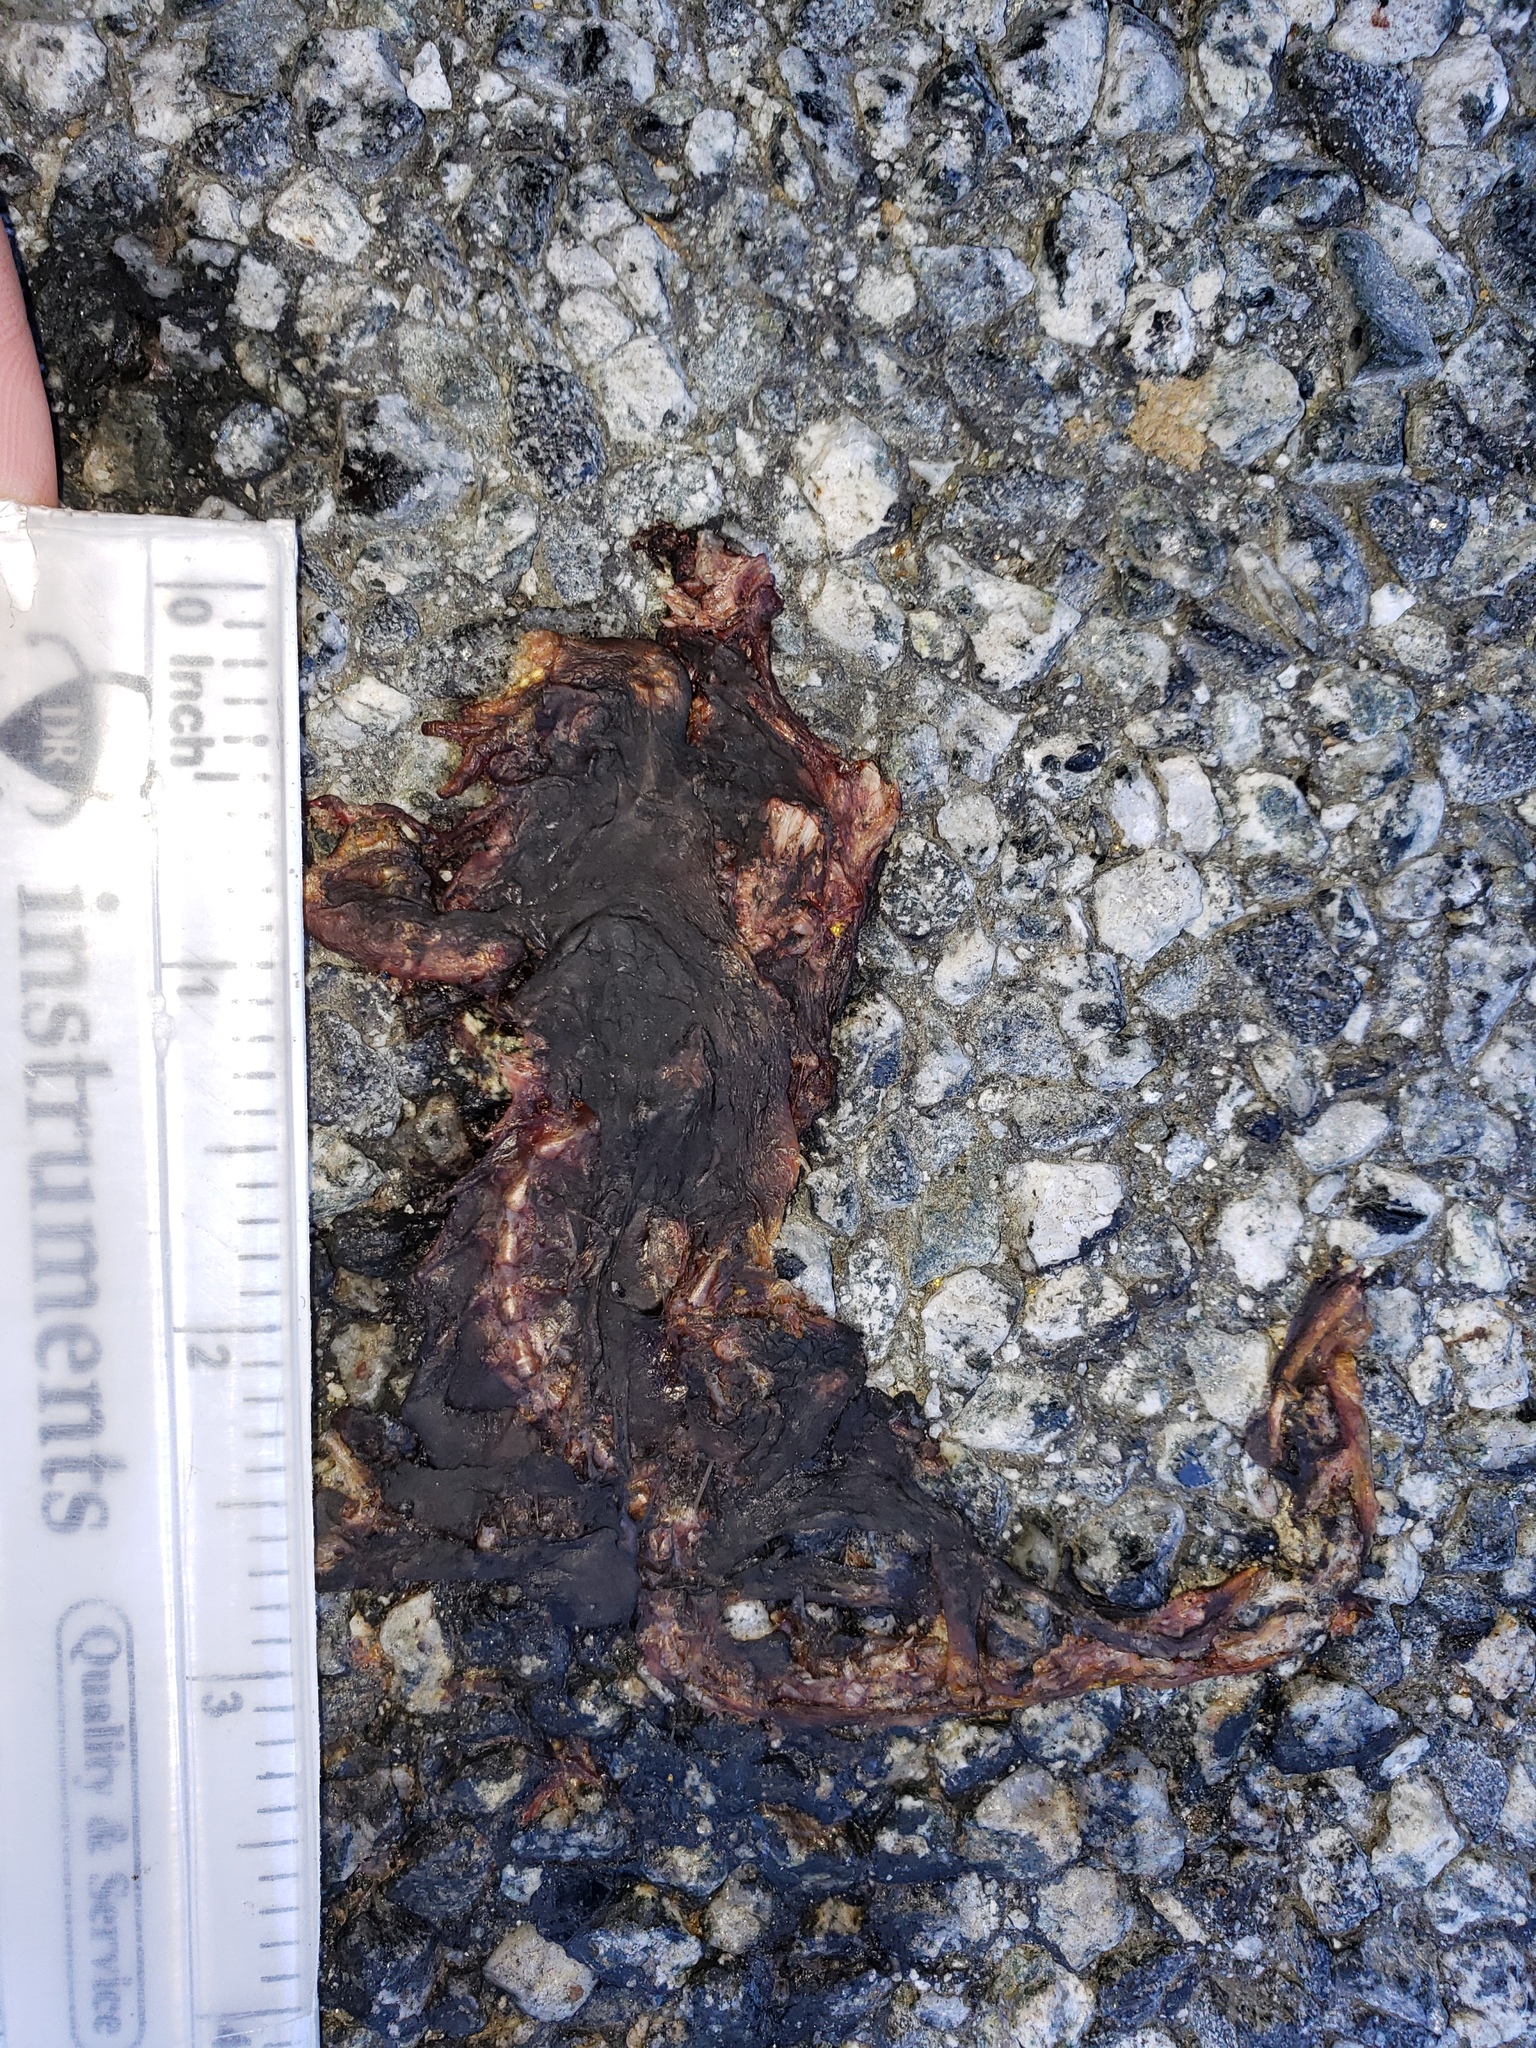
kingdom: Animalia
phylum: Chordata
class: Amphibia
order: Caudata
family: Salamandridae
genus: Taricha
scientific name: Taricha
